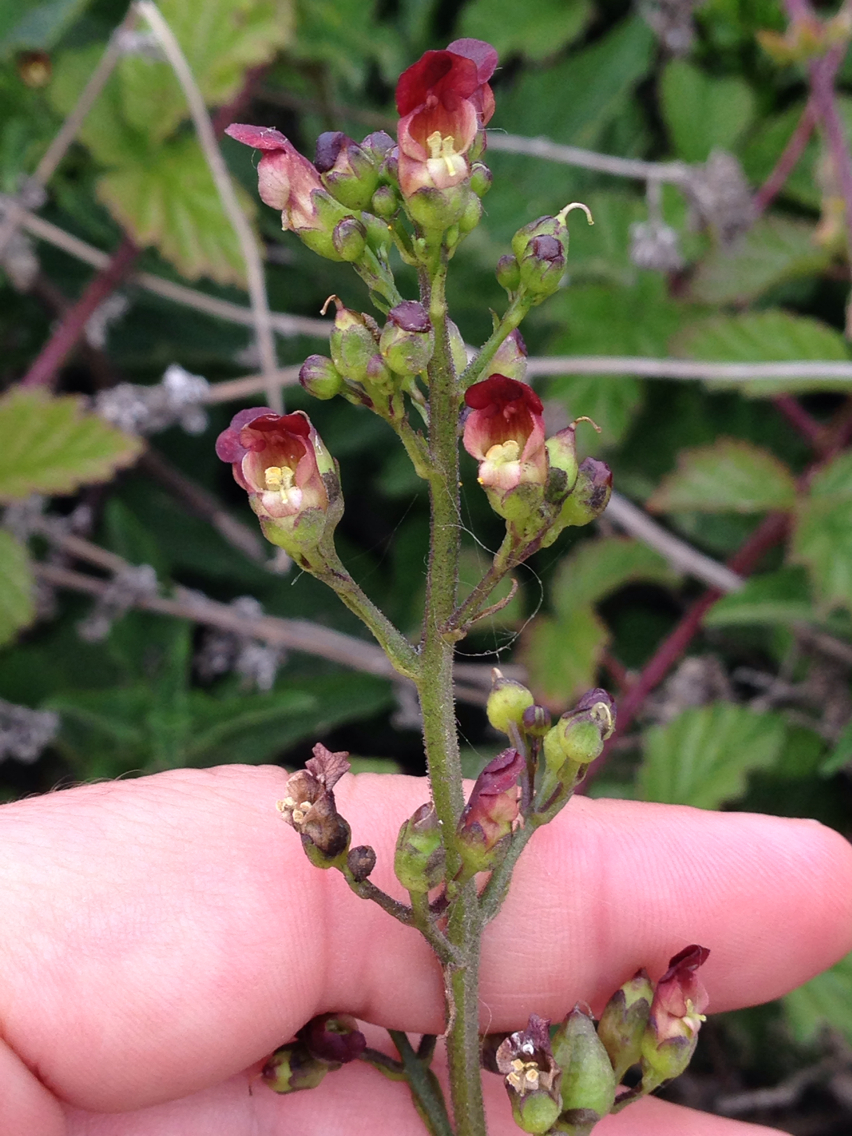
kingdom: Plantae
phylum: Tracheophyta
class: Magnoliopsida
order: Lamiales
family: Scrophulariaceae
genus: Scrophularia
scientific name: Scrophularia californica
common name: California figwort
